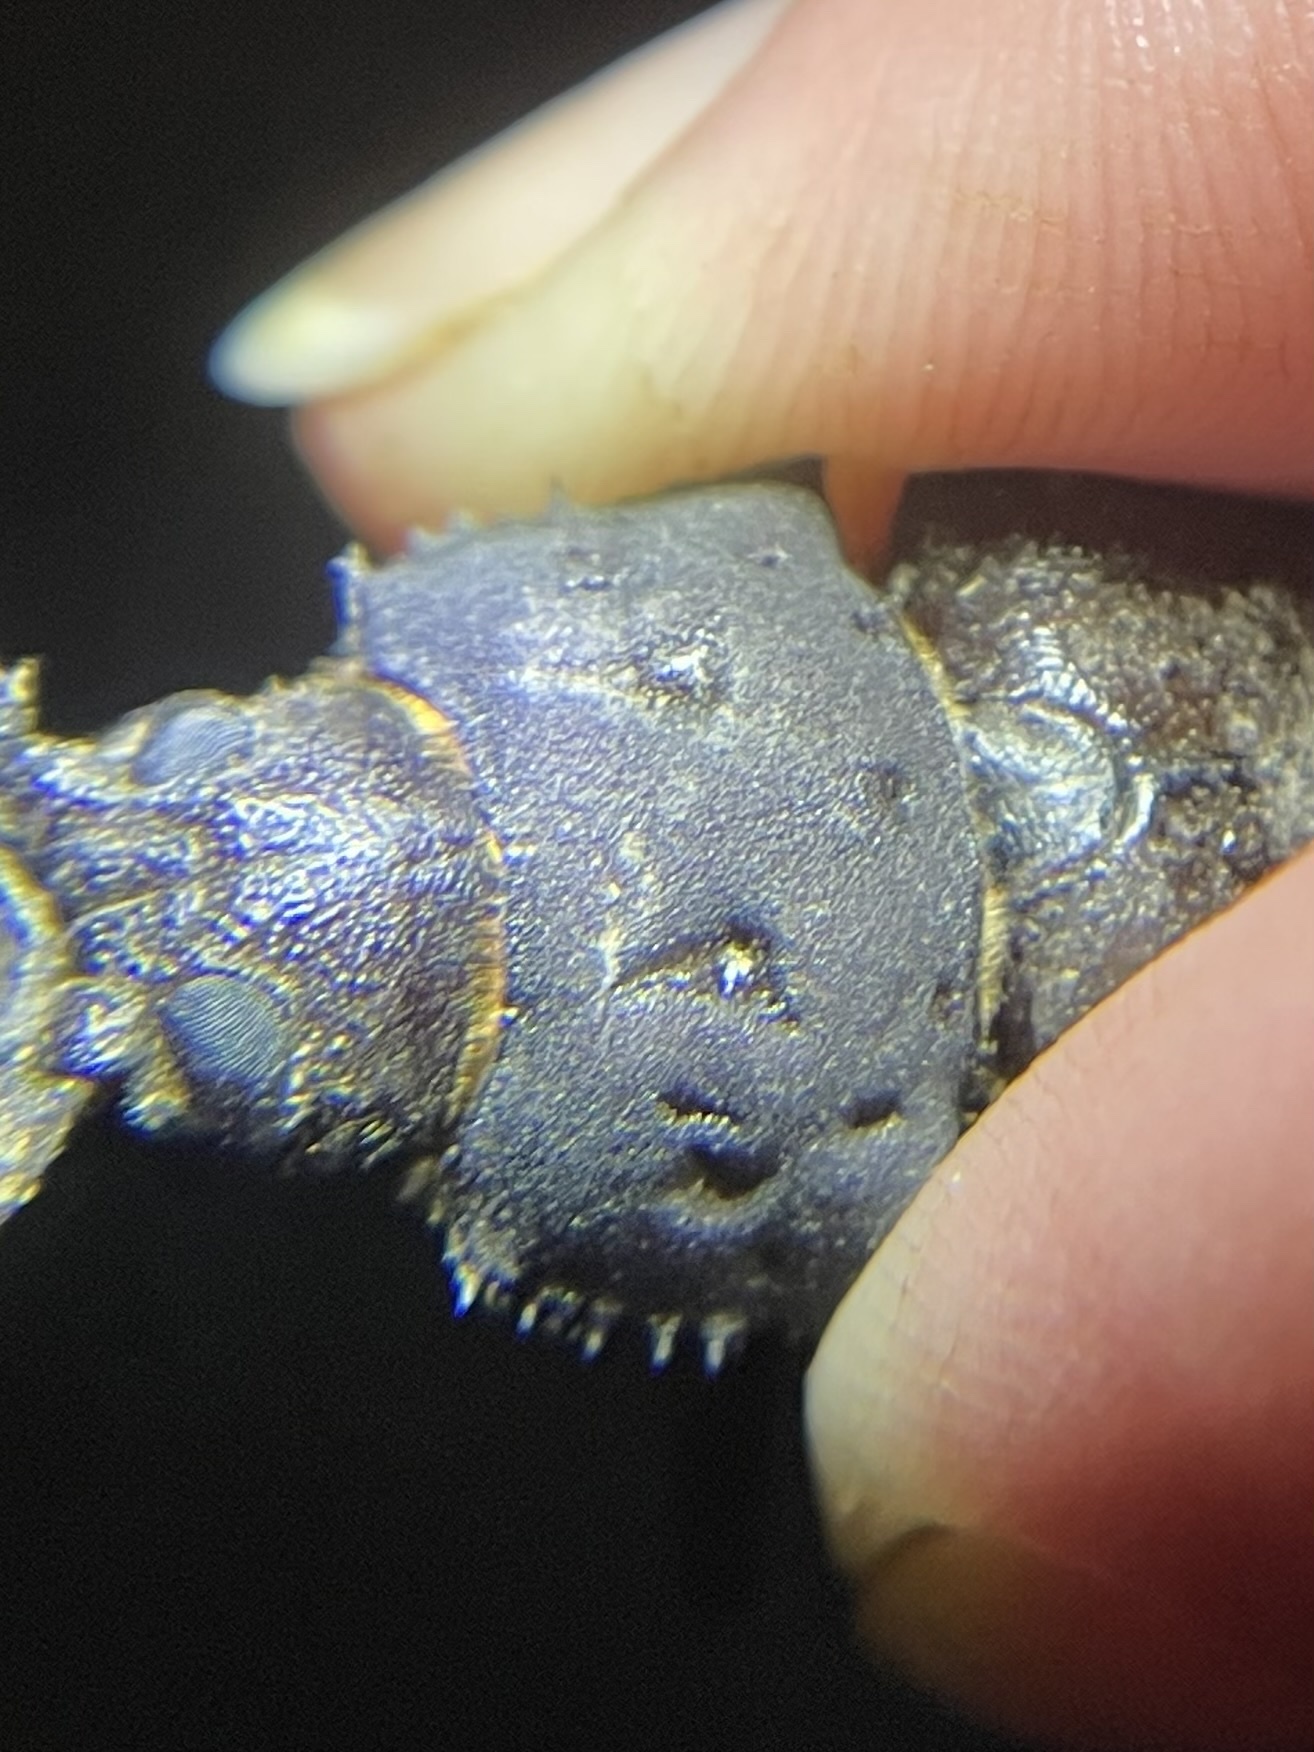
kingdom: Animalia
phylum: Arthropoda
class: Insecta
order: Coleoptera
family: Cerambycidae
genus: Trichocnemis
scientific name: Trichocnemis spiculatus
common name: Long-horned beetle
